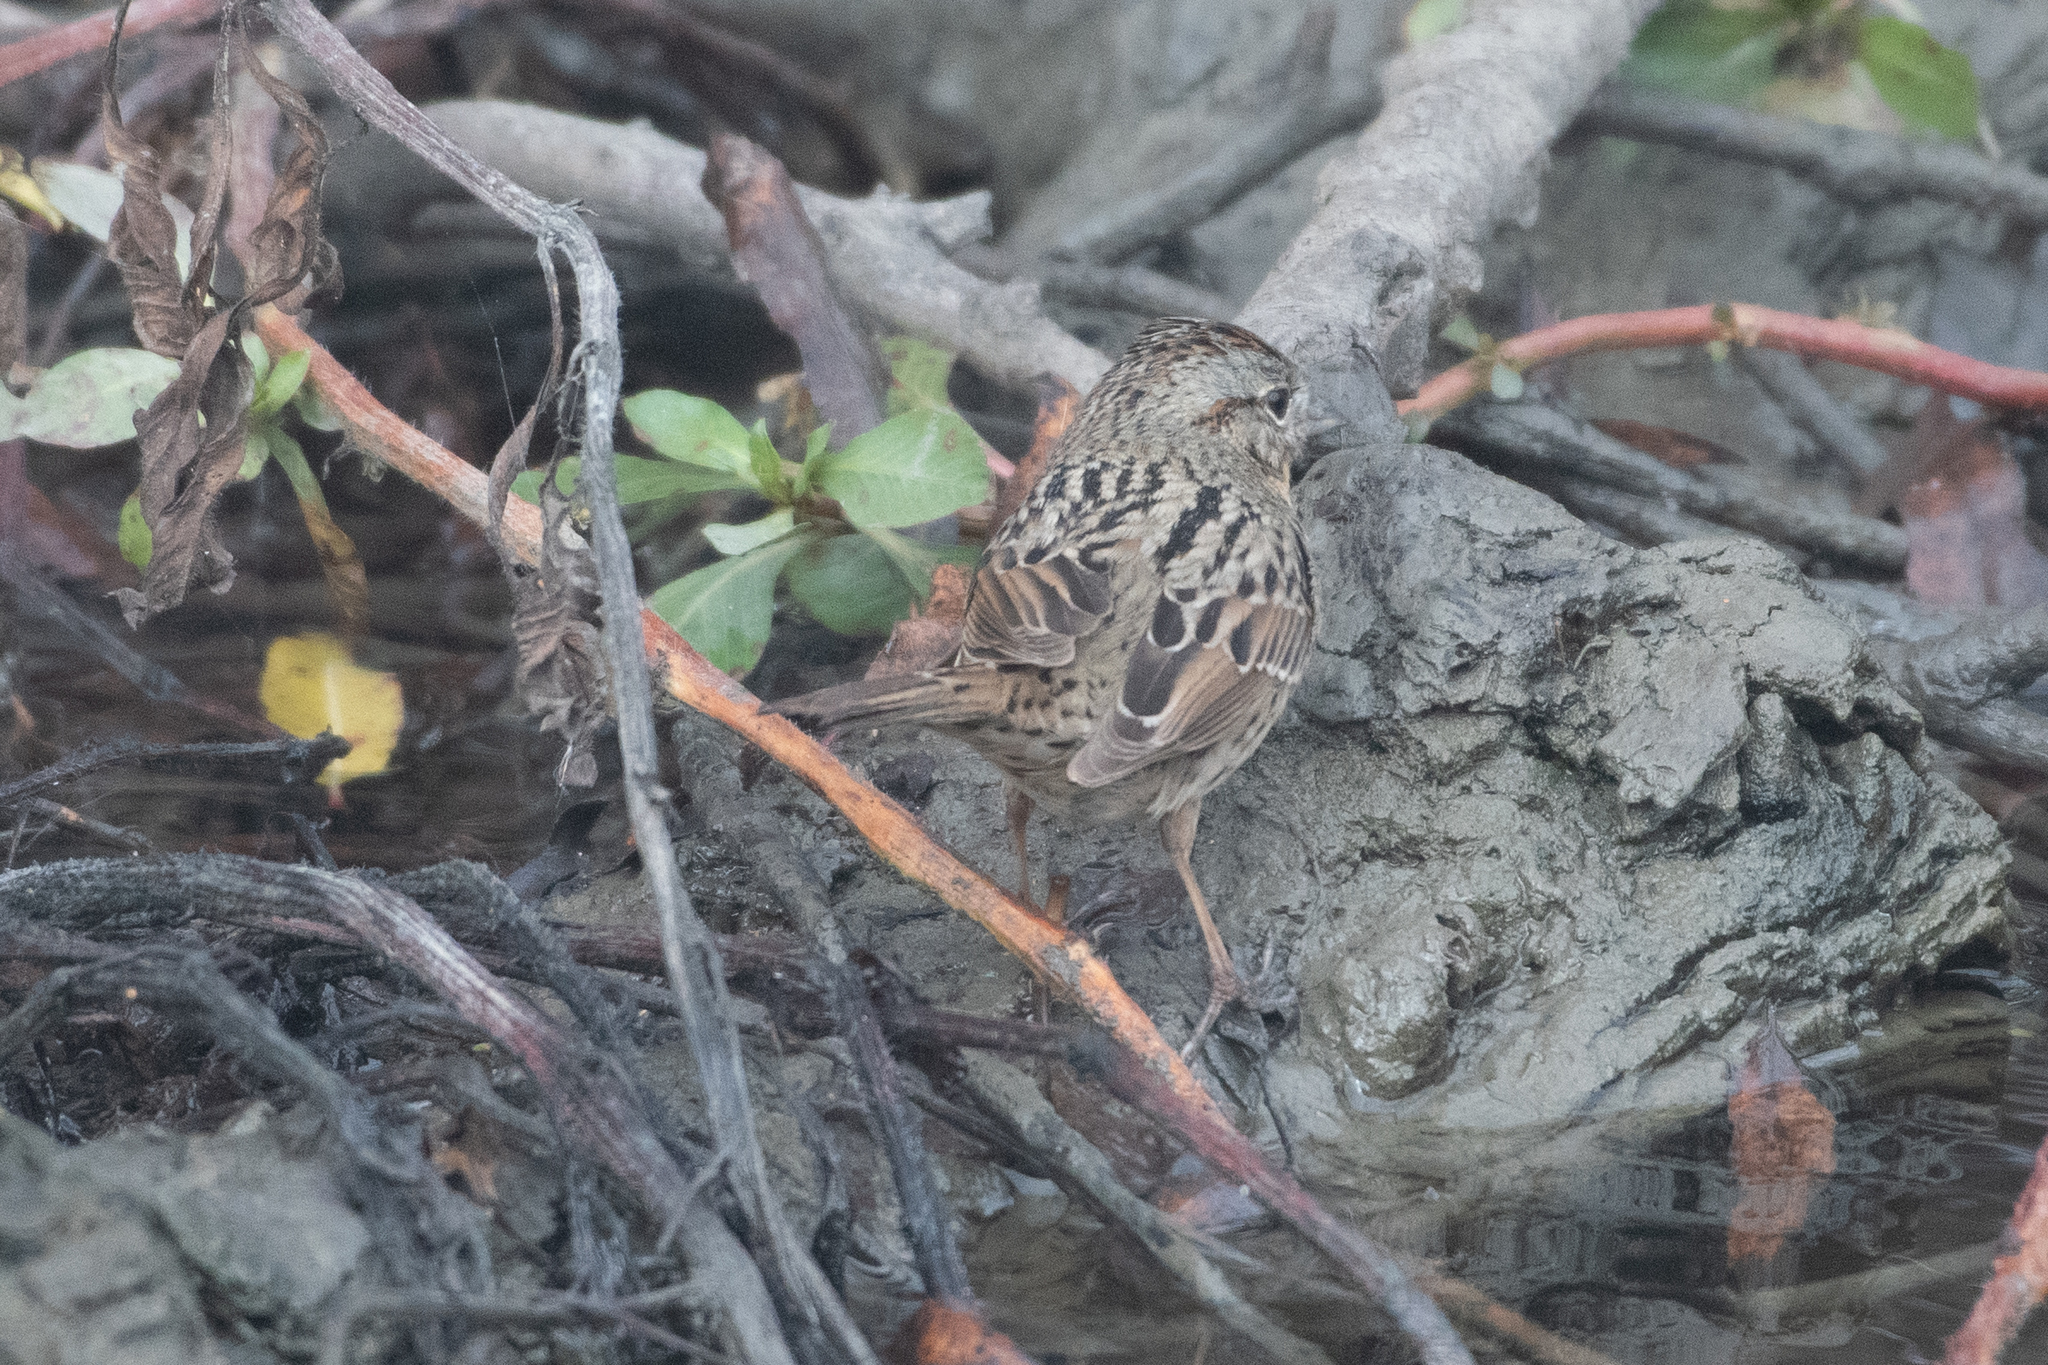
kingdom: Animalia
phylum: Chordata
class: Aves
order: Passeriformes
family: Passerellidae
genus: Melospiza
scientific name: Melospiza lincolnii
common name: Lincoln's sparrow
